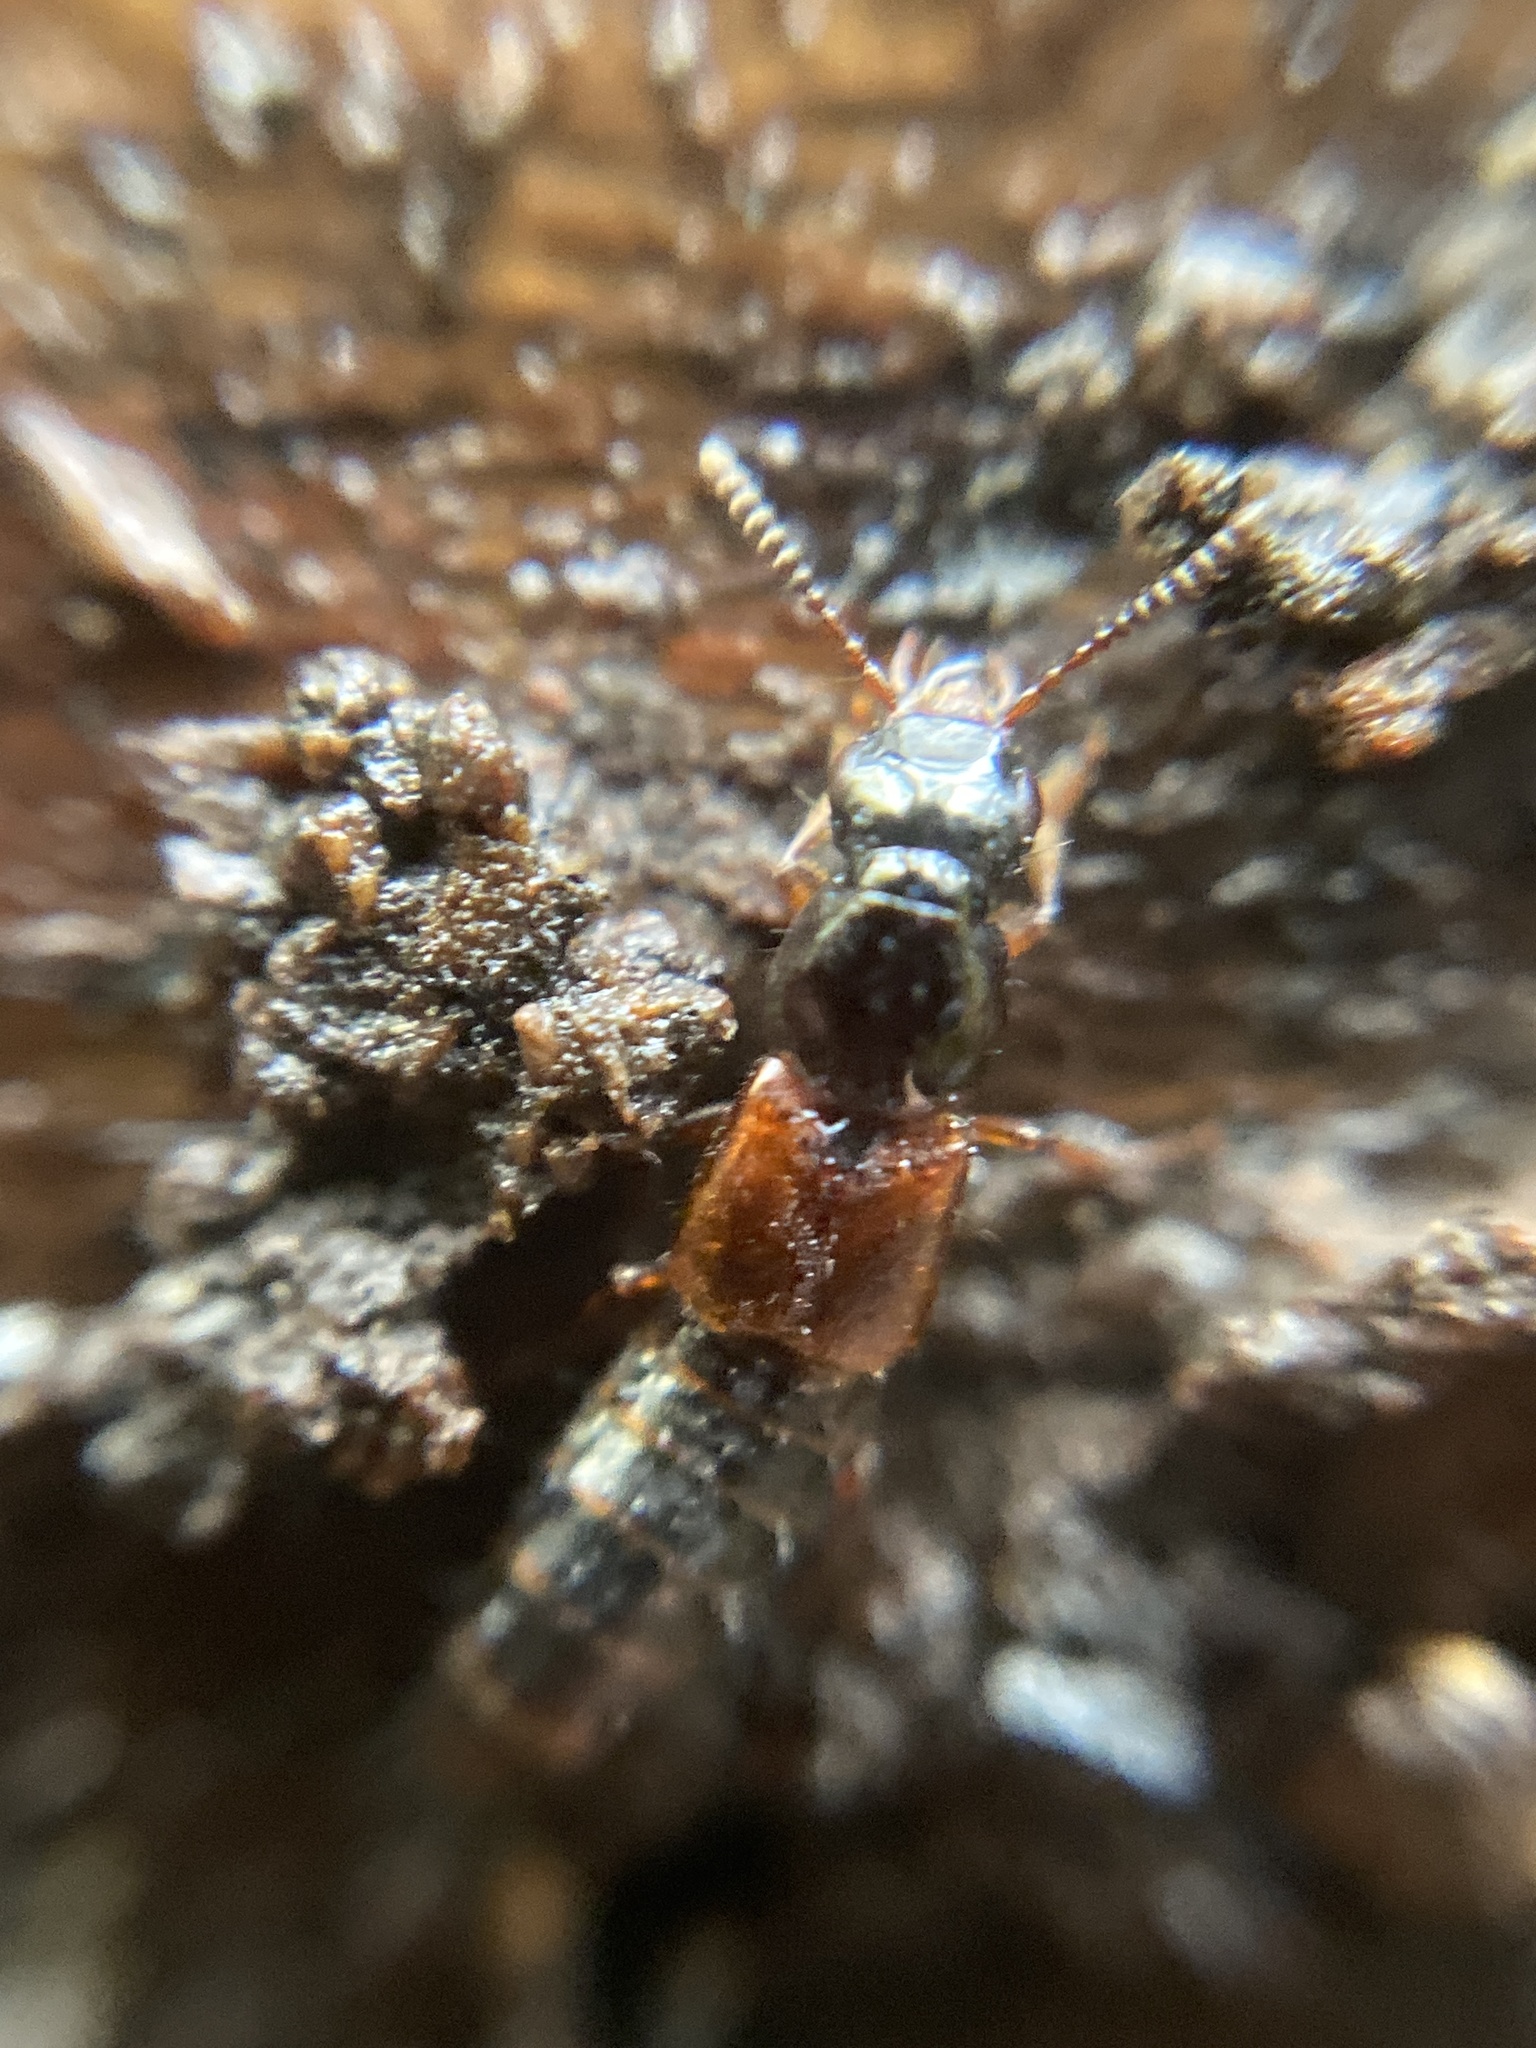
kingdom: Animalia
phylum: Arthropoda
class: Insecta
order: Coleoptera
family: Staphylinidae
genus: Quedionuchus
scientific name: Quedionuchus glaber
